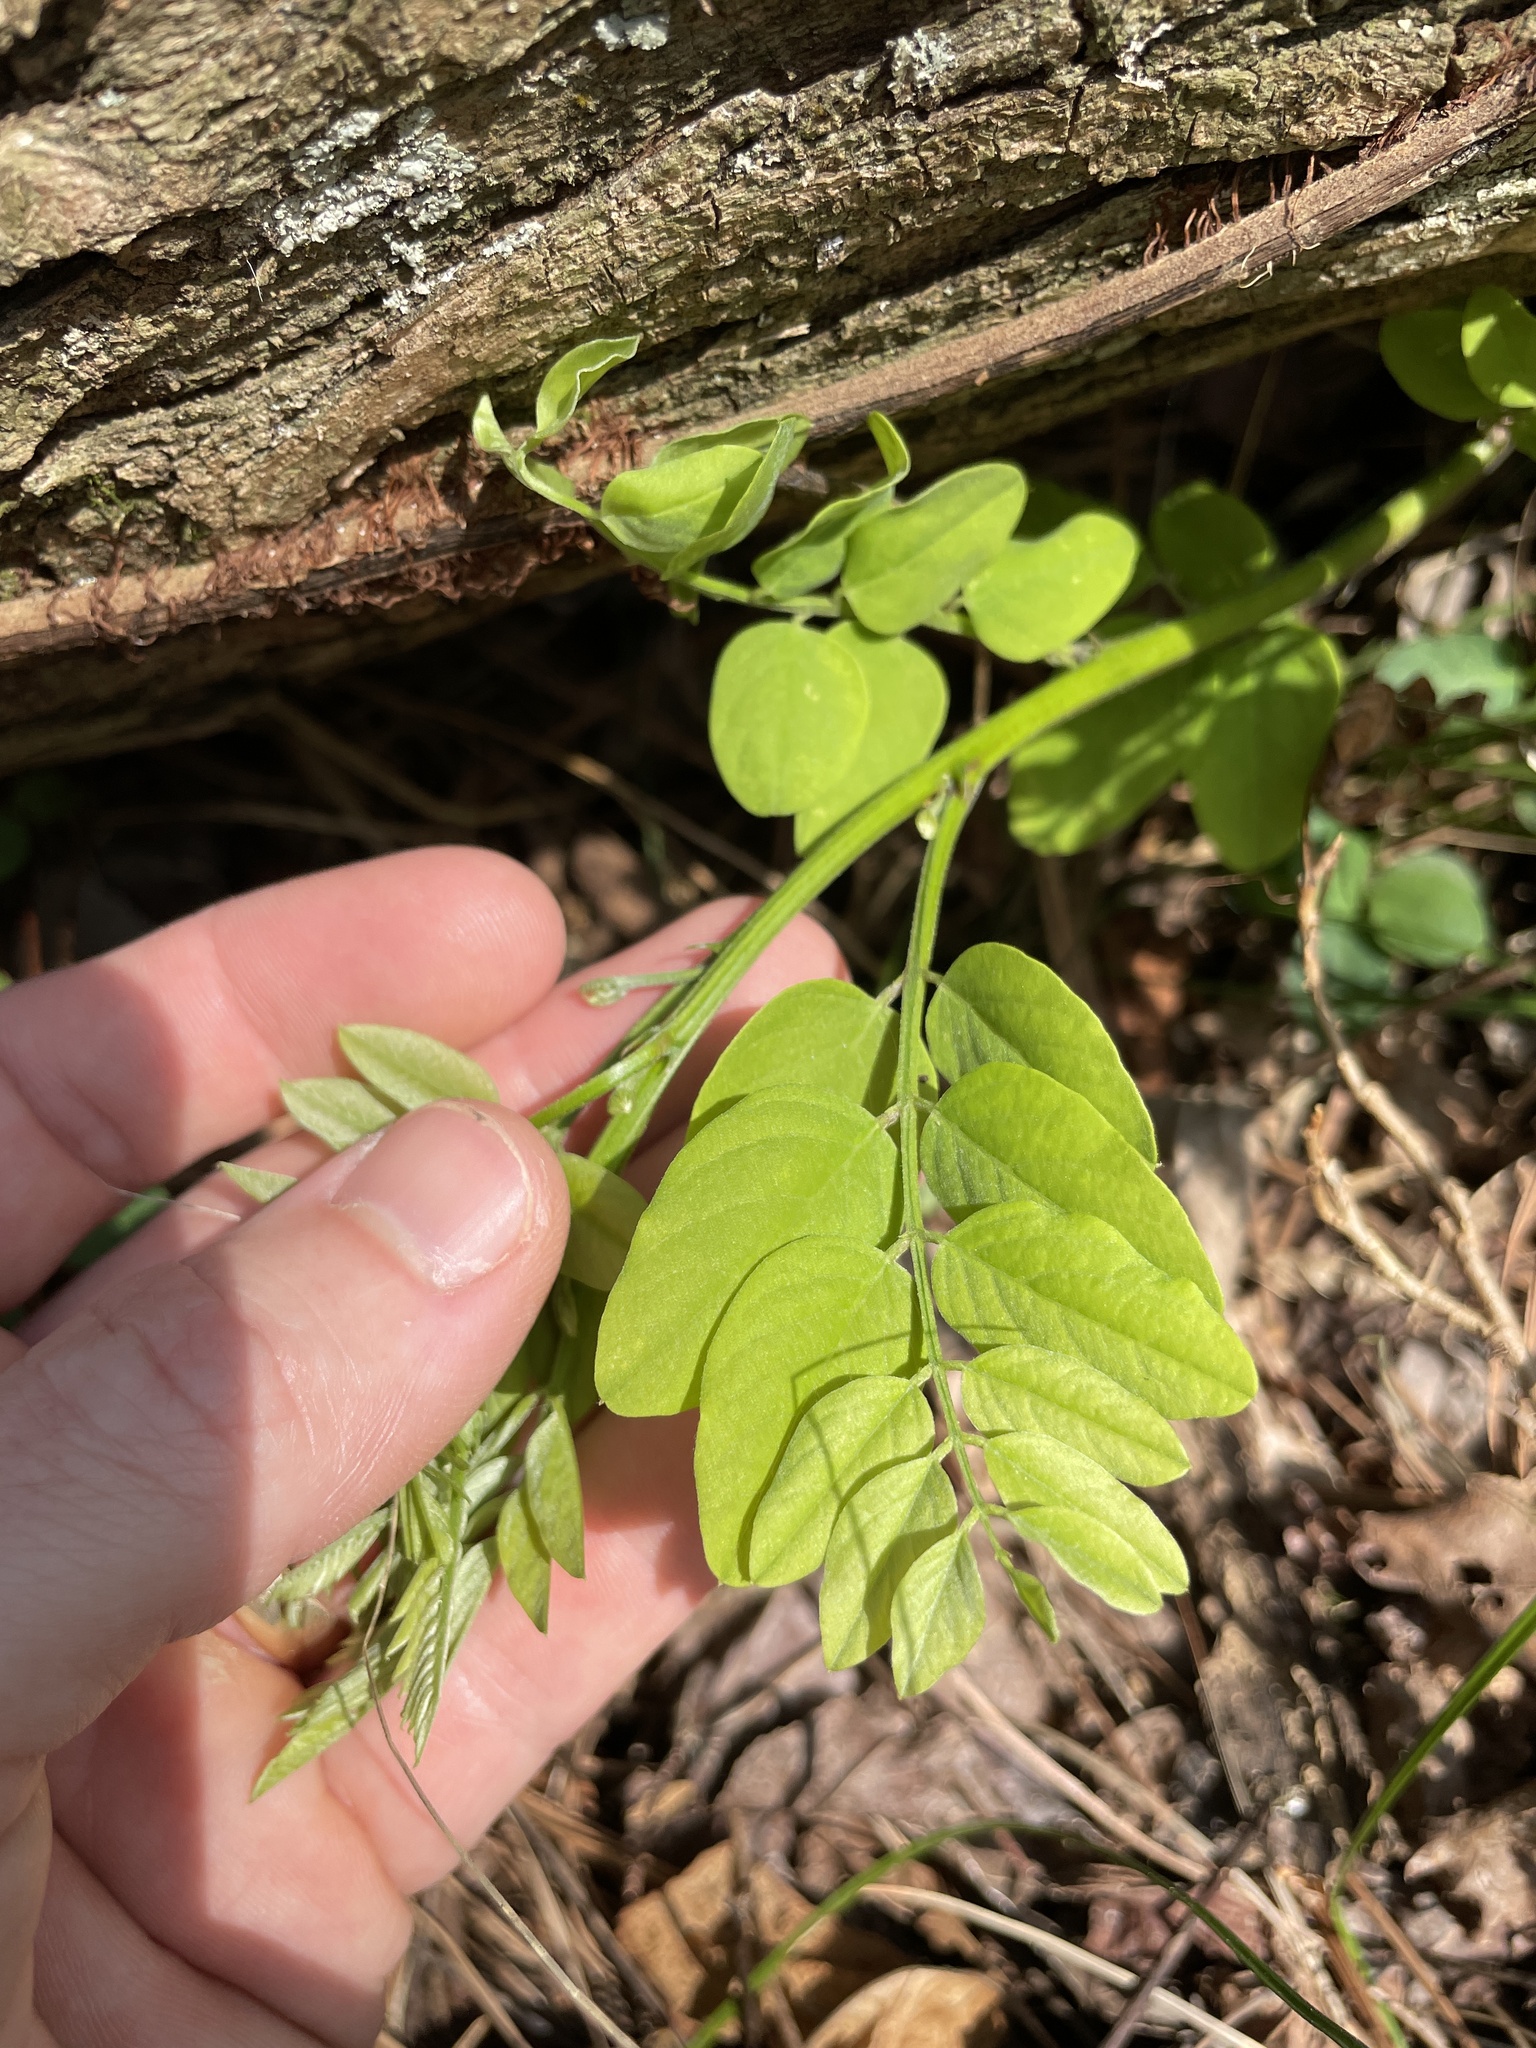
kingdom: Plantae
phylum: Tracheophyta
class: Magnoliopsida
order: Fabales
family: Fabaceae
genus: Robinia
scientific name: Robinia pseudoacacia
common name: Black locust
